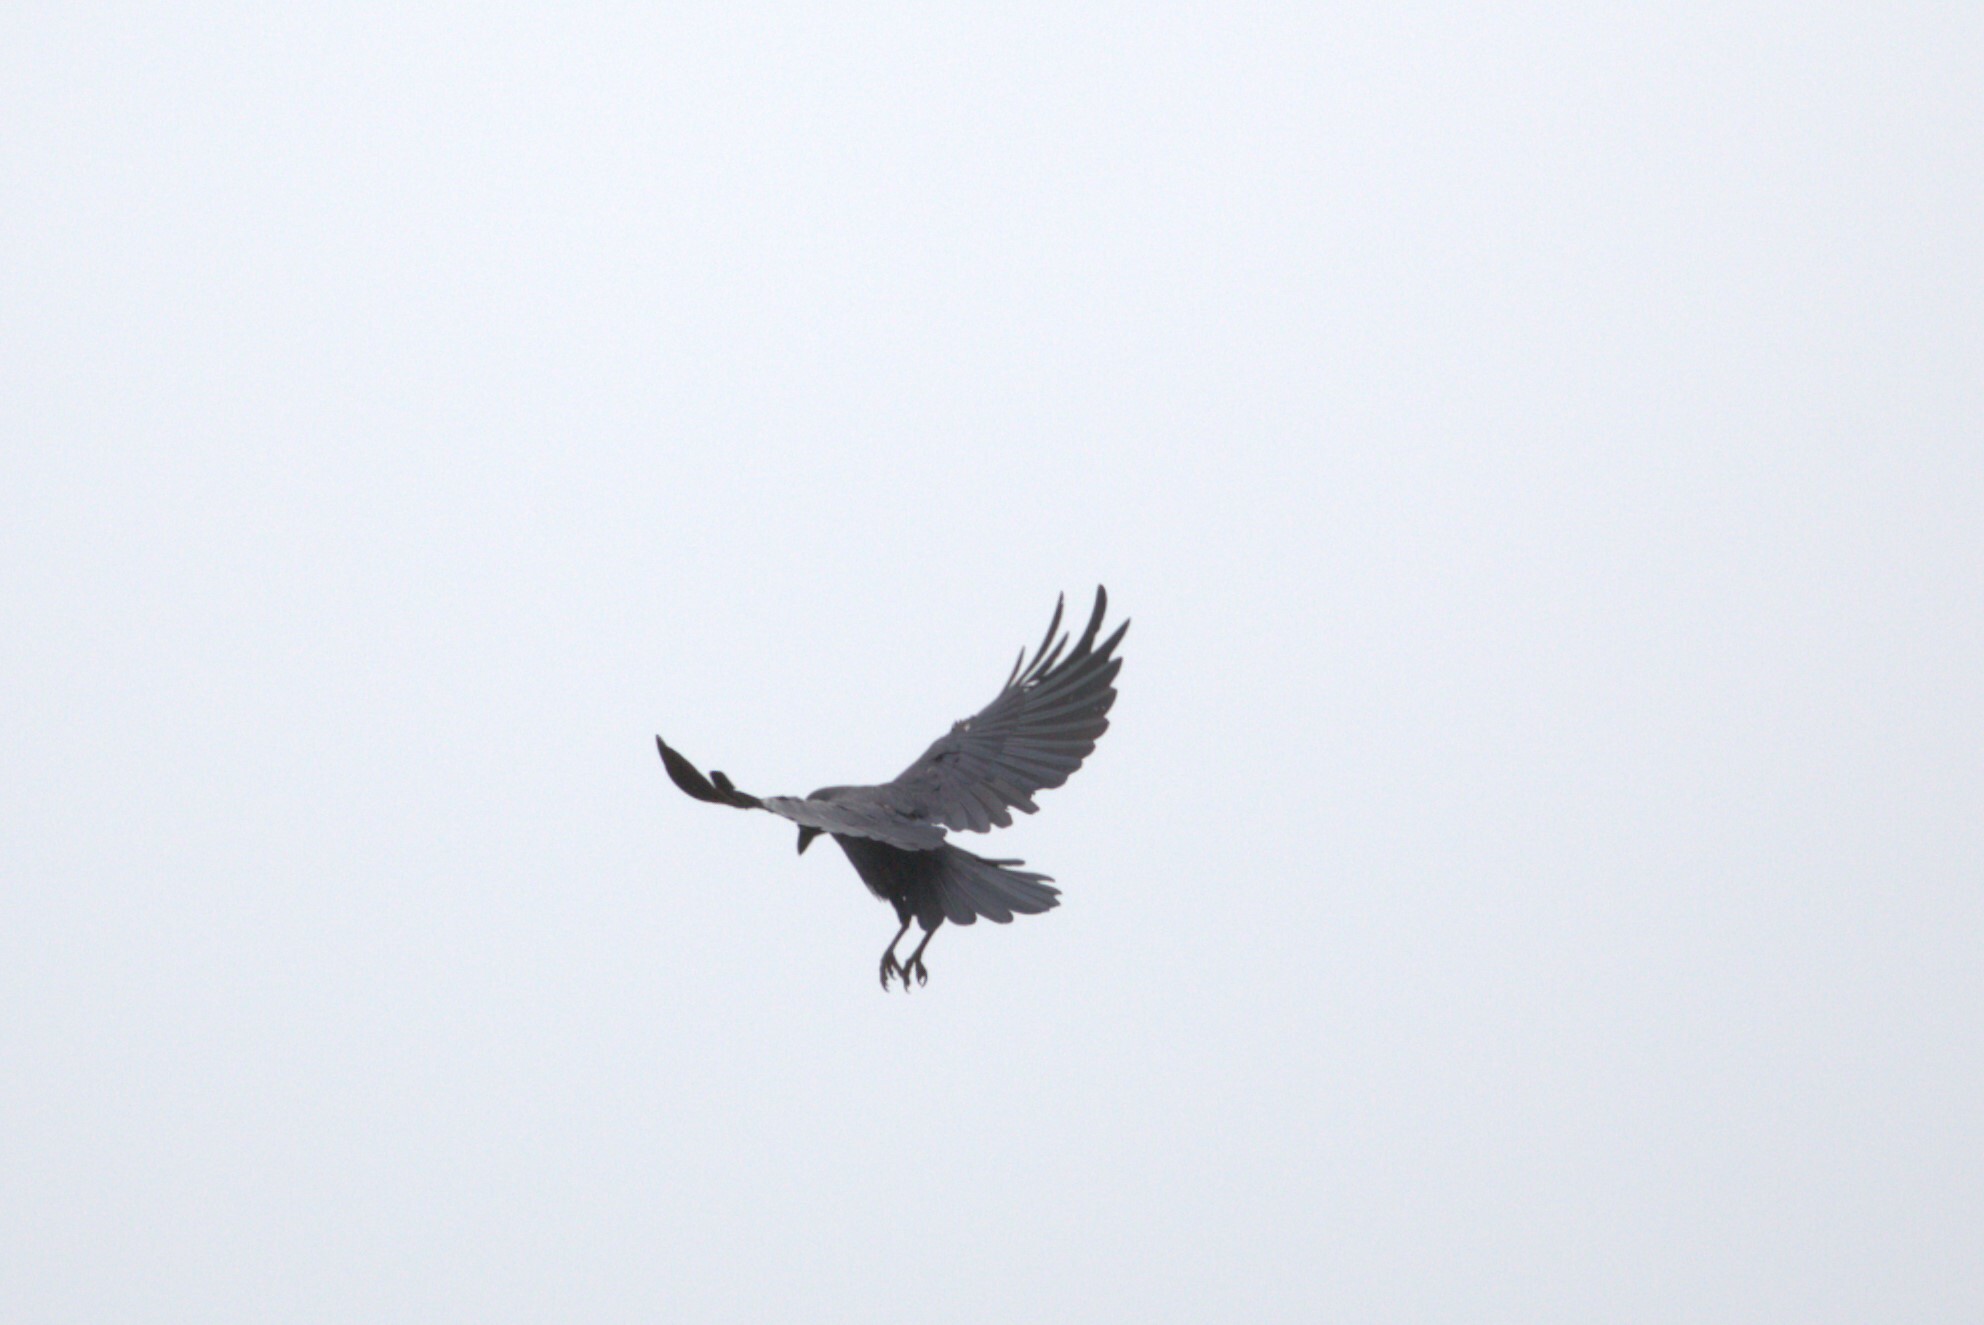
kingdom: Animalia
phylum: Chordata
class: Aves
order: Passeriformes
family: Corvidae
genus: Corvus
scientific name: Corvus orru
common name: Torresian crow
